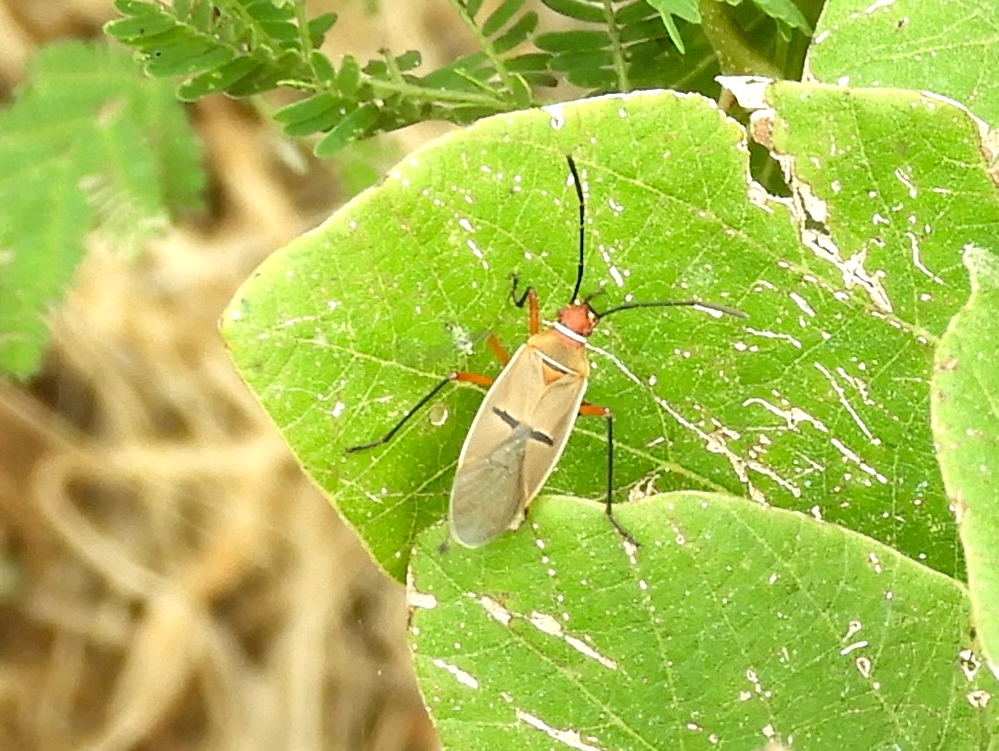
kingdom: Animalia
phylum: Arthropoda
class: Insecta
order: Hemiptera
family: Pyrrhocoridae
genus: Dysdercus
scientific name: Dysdercus
